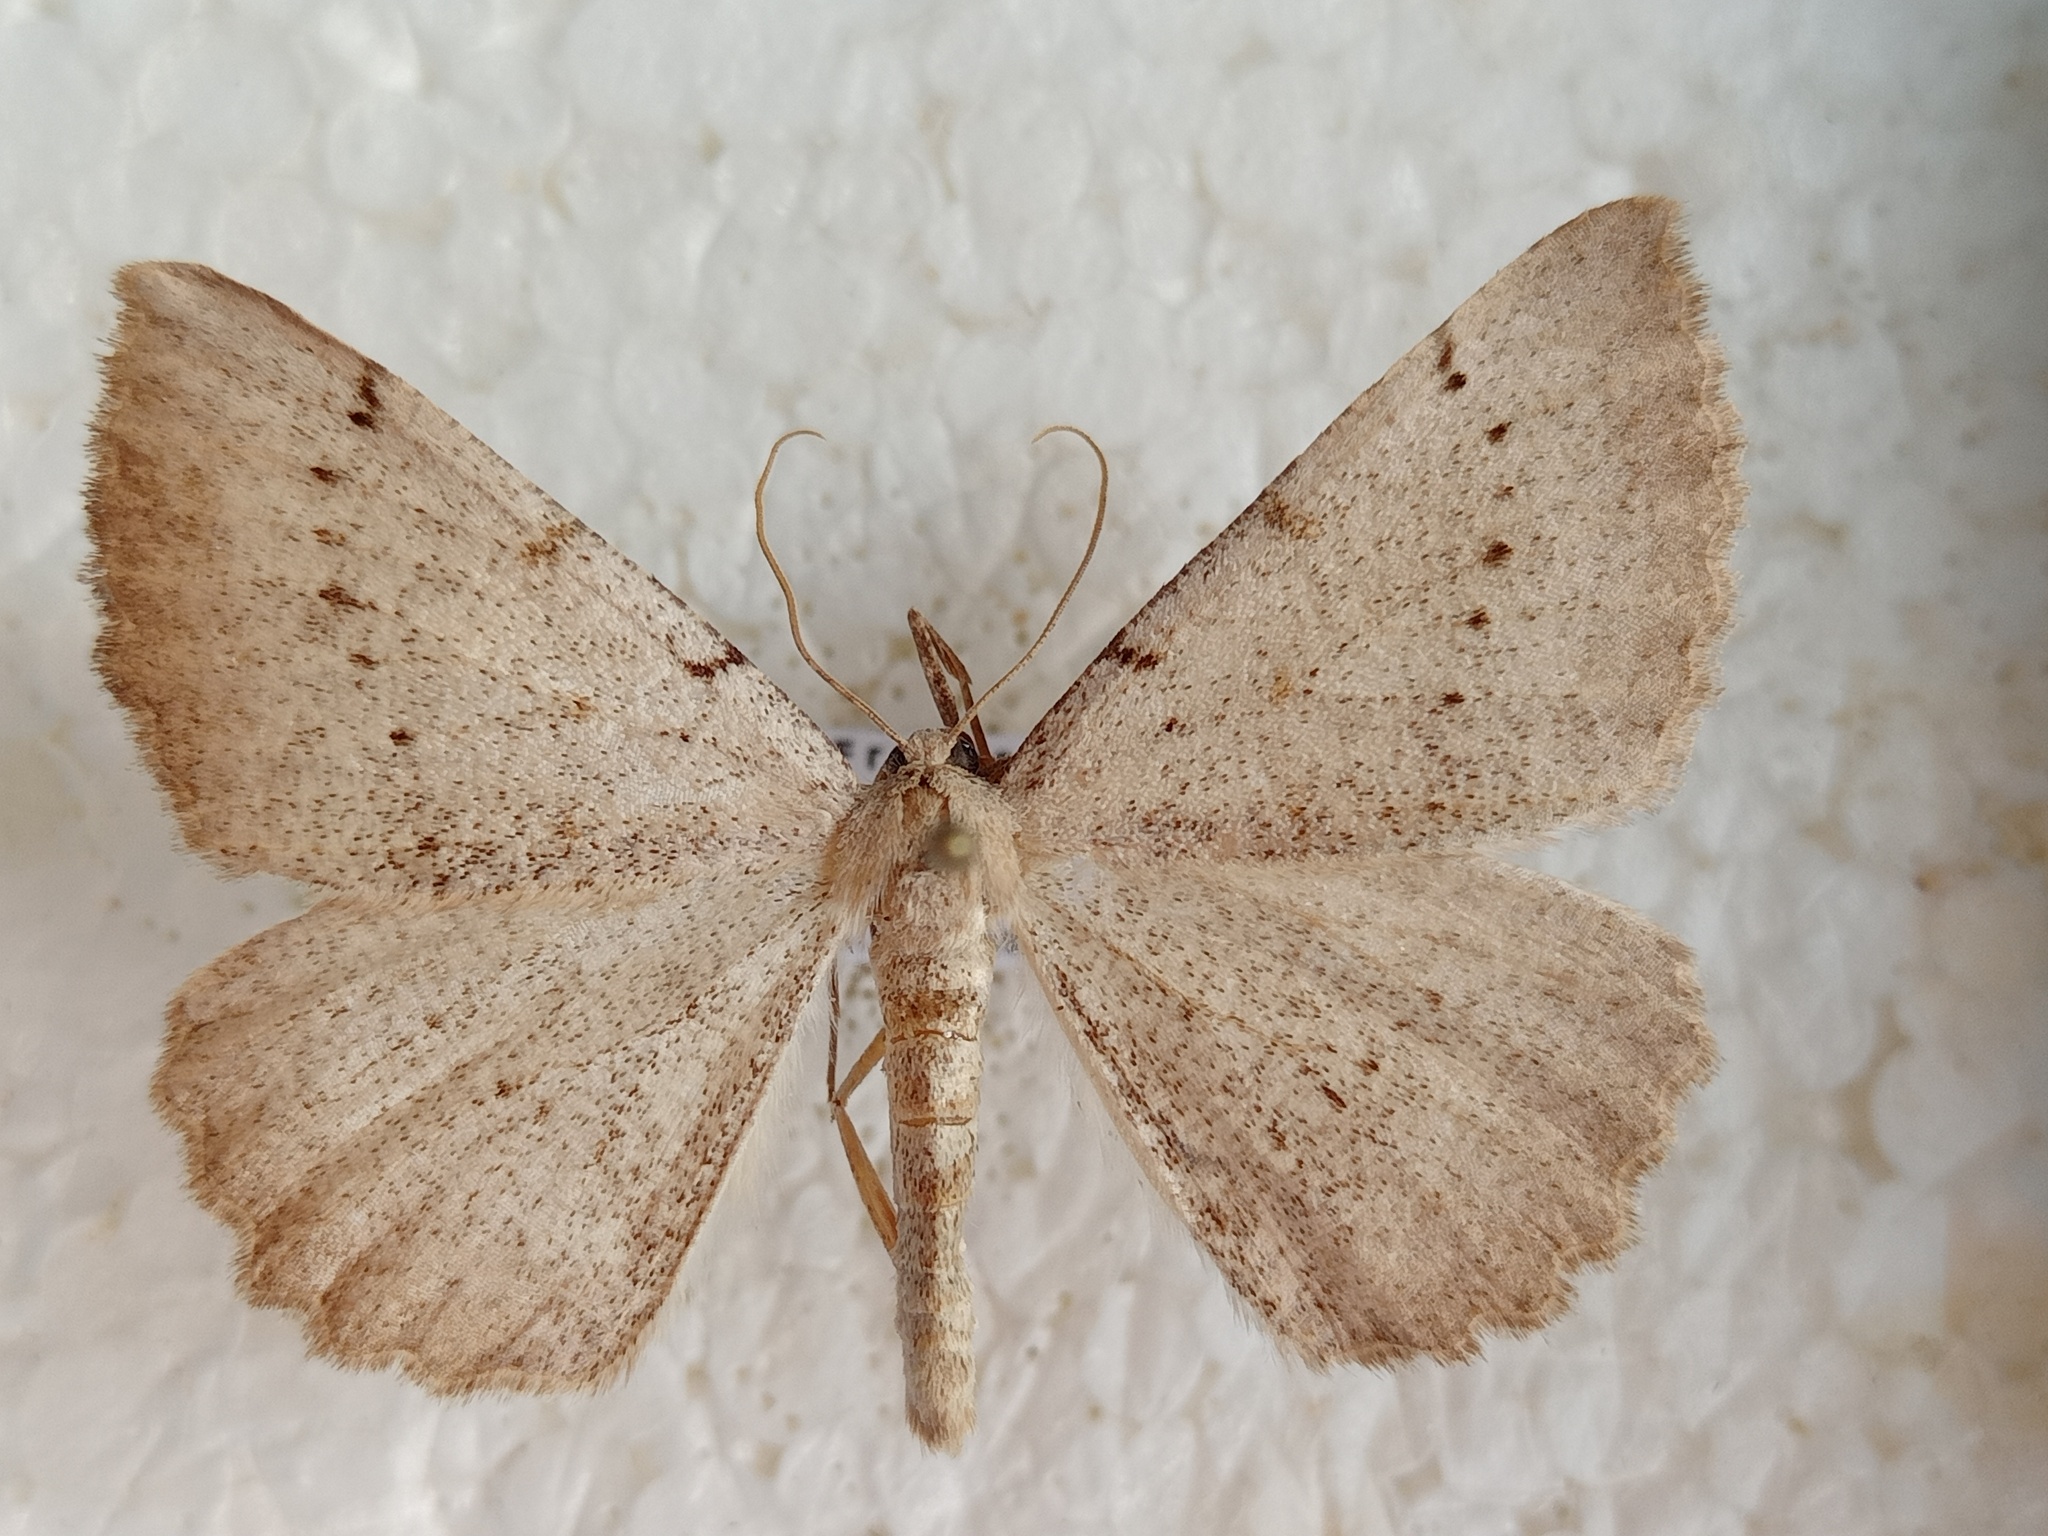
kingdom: Animalia
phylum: Arthropoda
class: Insecta
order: Lepidoptera
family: Geometridae
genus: Odontognophos
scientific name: Odontognophos dumetata
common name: Irish annulet
